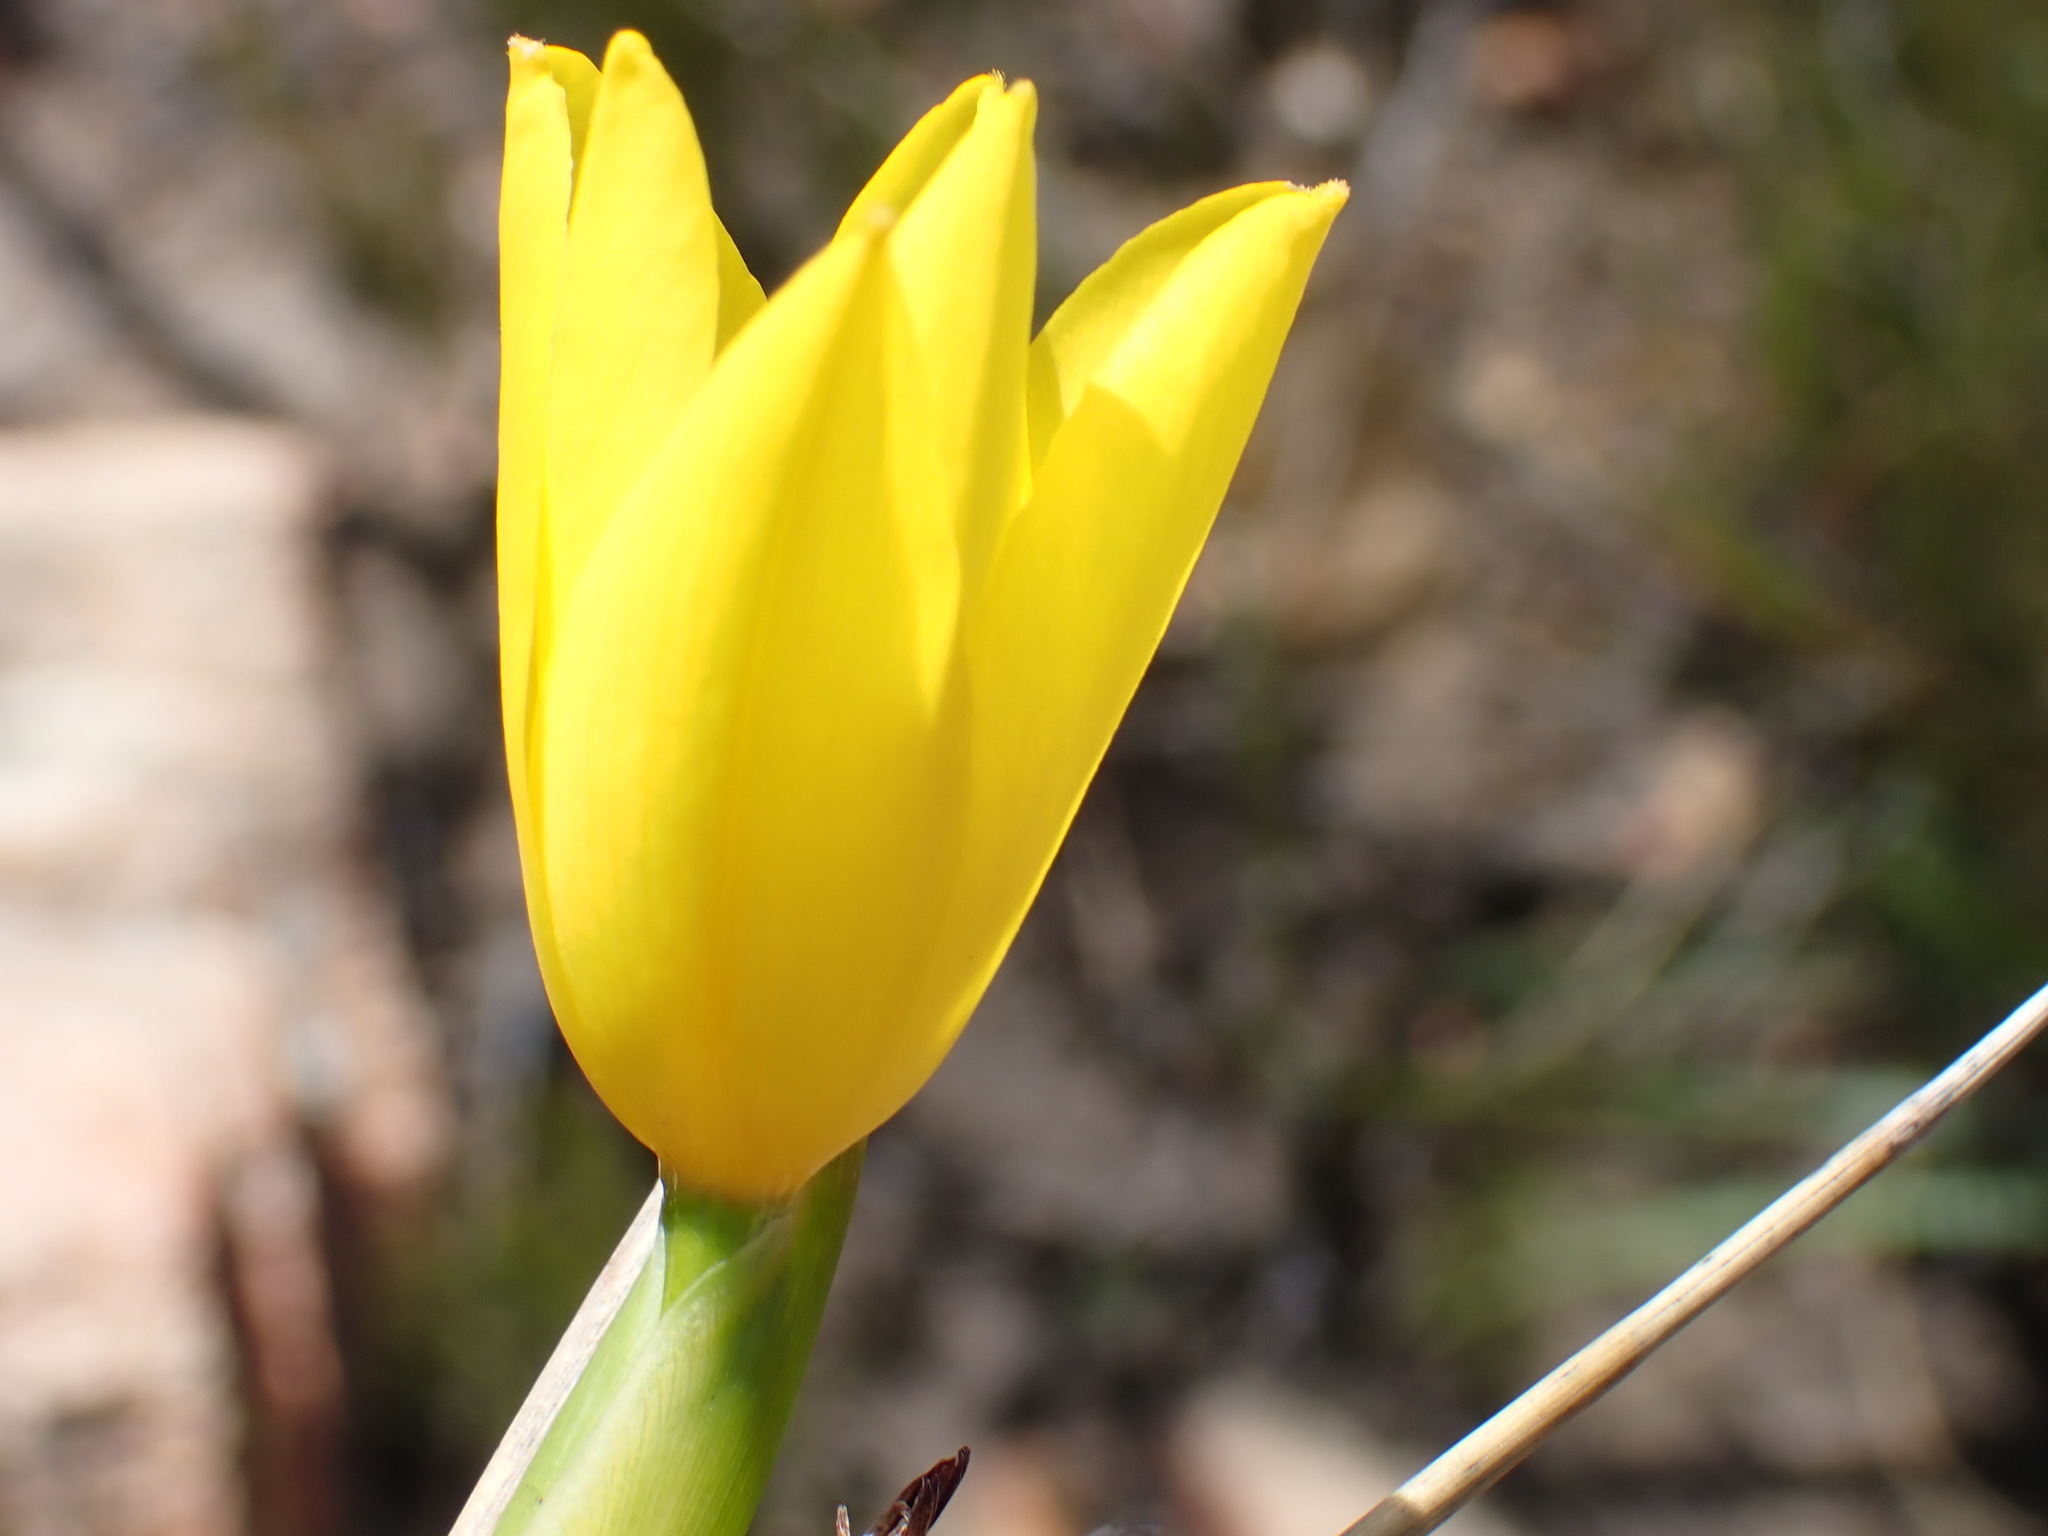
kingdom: Plantae
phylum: Tracheophyta
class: Liliopsida
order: Asparagales
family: Iridaceae
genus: Bobartia
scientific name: Bobartia aphylla
